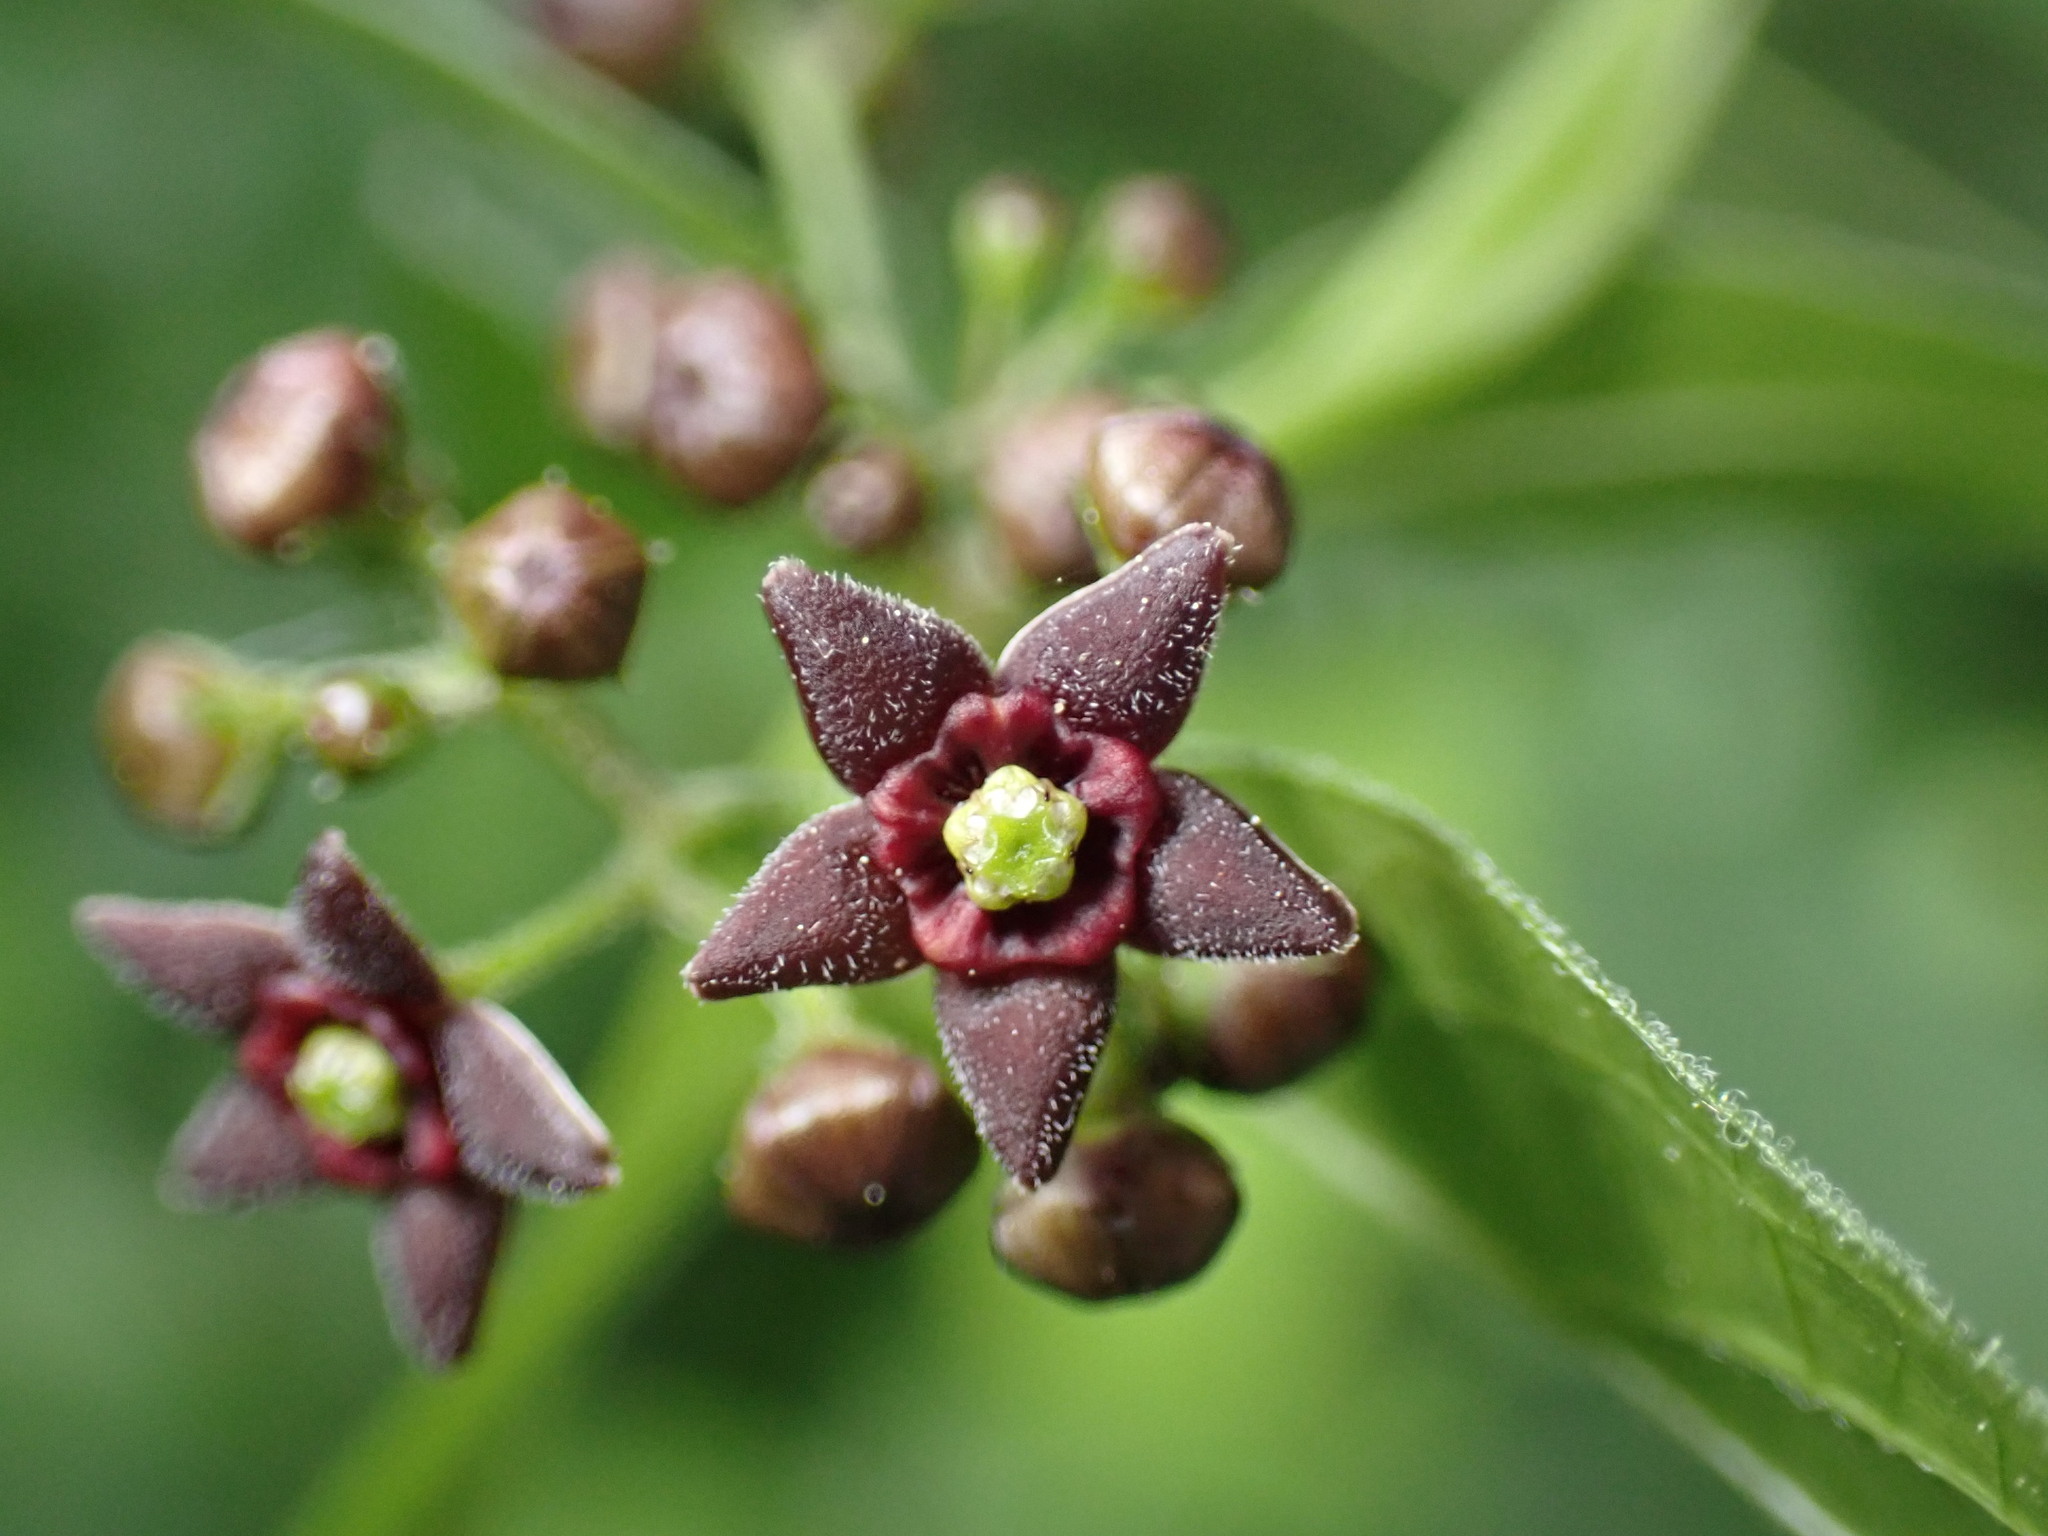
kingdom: Plantae
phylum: Tracheophyta
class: Magnoliopsida
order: Gentianales
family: Apocynaceae
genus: Vincetoxicum
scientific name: Vincetoxicum nigrum
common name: Black swallow-wort
